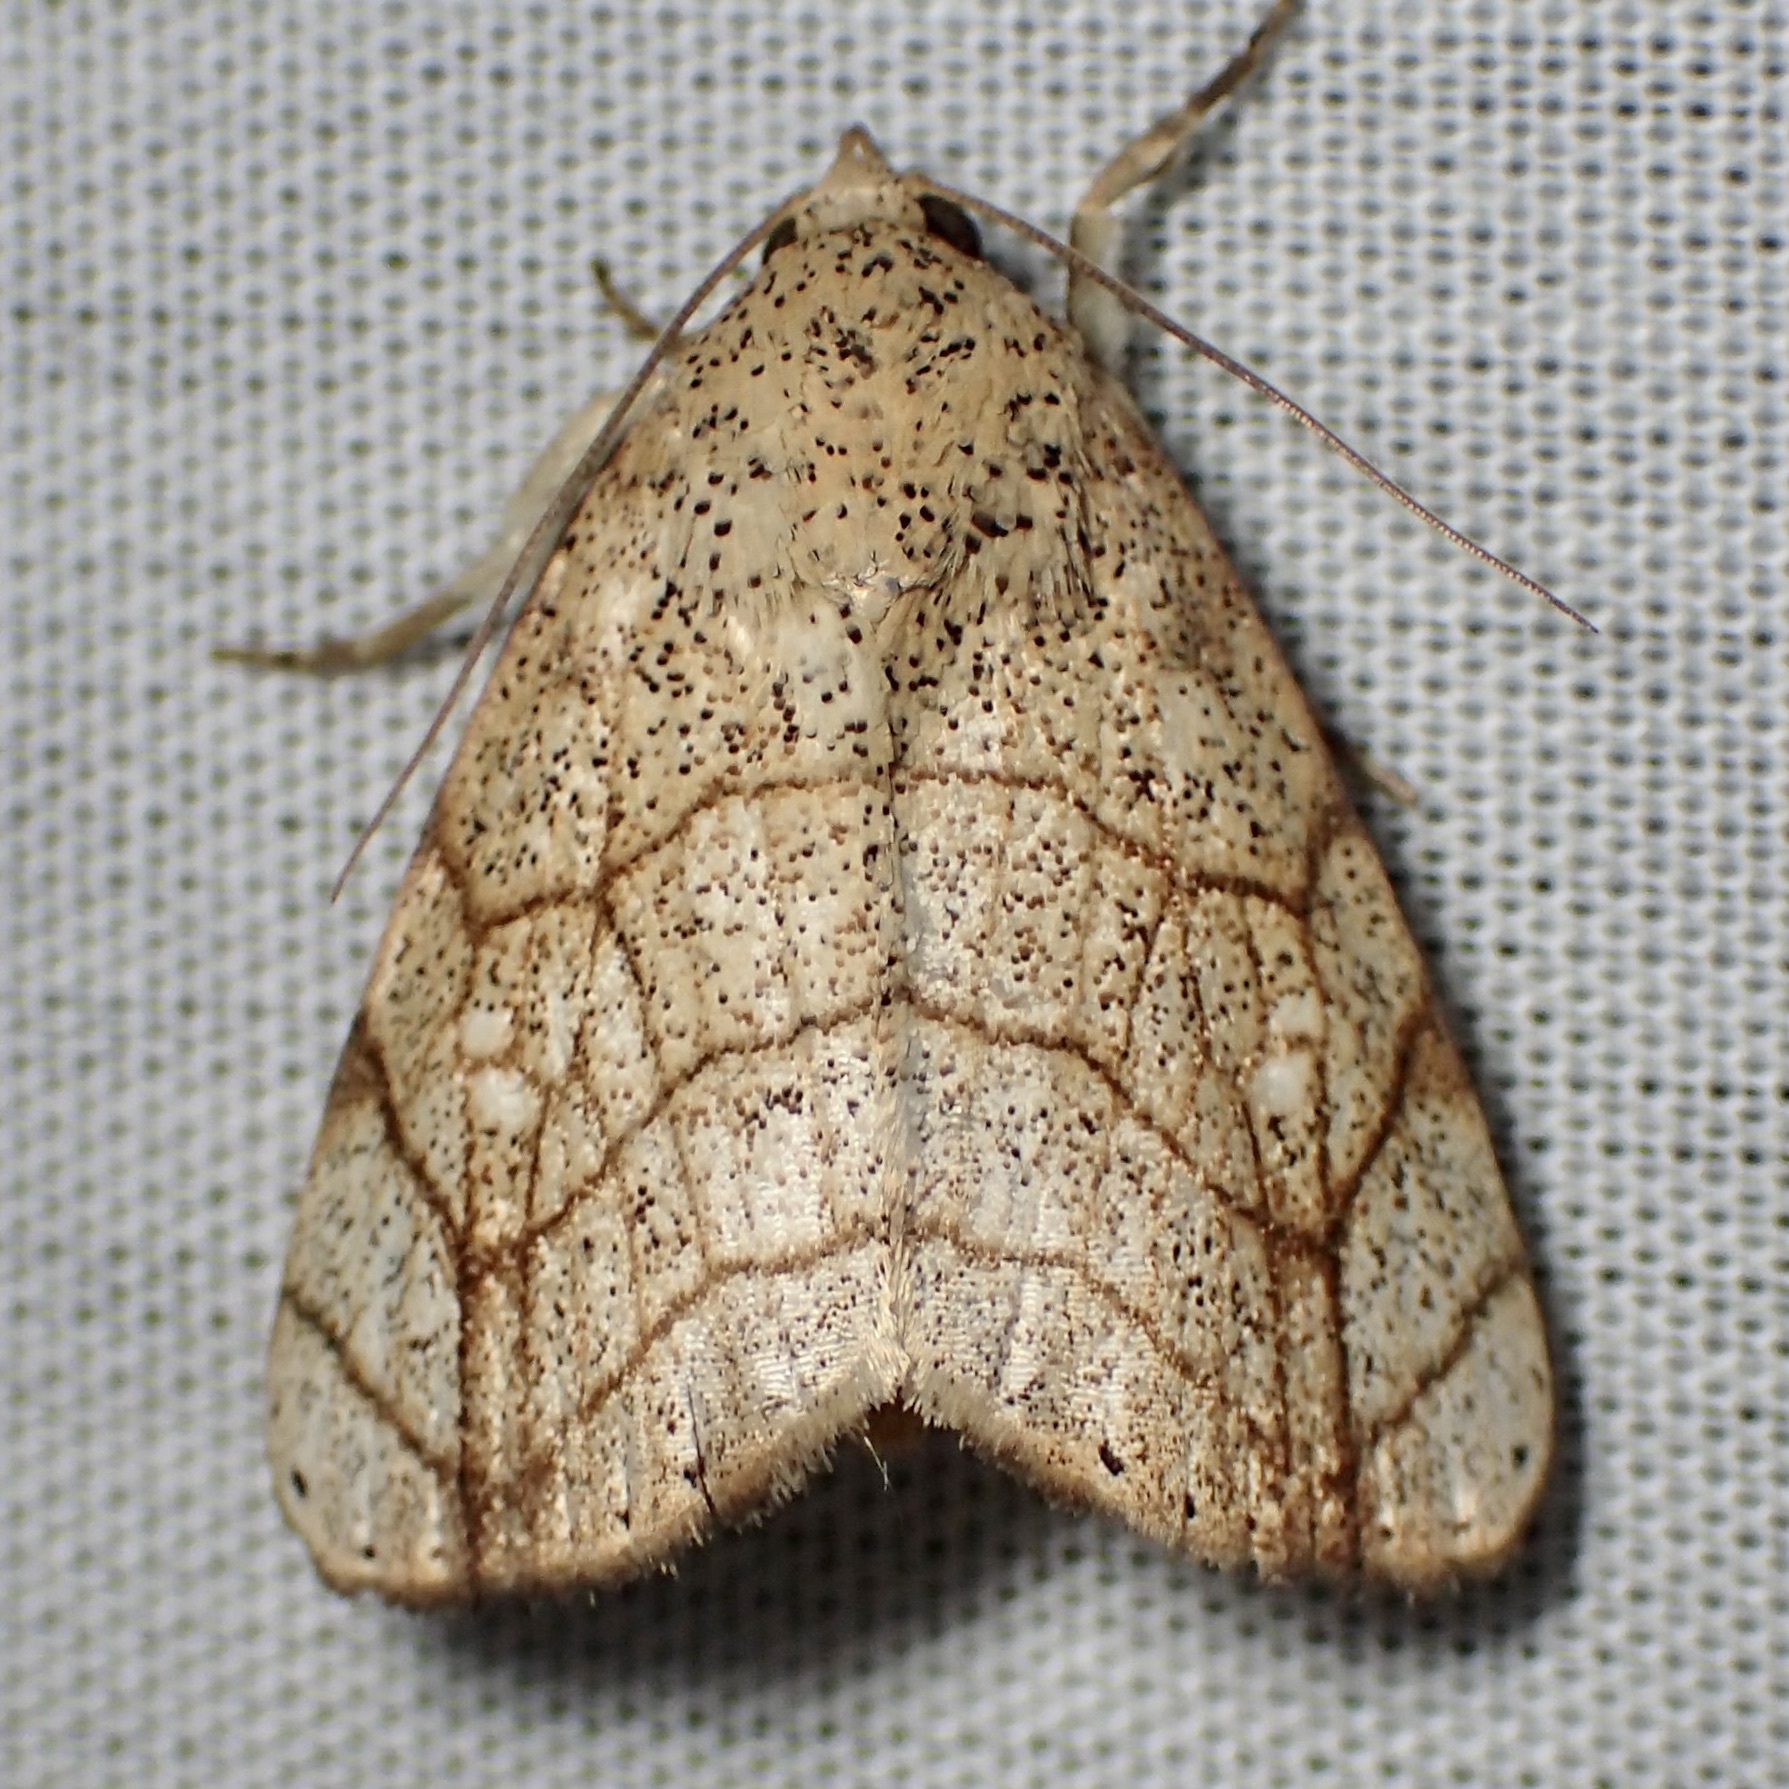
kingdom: Animalia
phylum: Arthropoda
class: Insecta
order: Lepidoptera
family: Noctuidae
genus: Bagisara
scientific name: Bagisara tristicta
